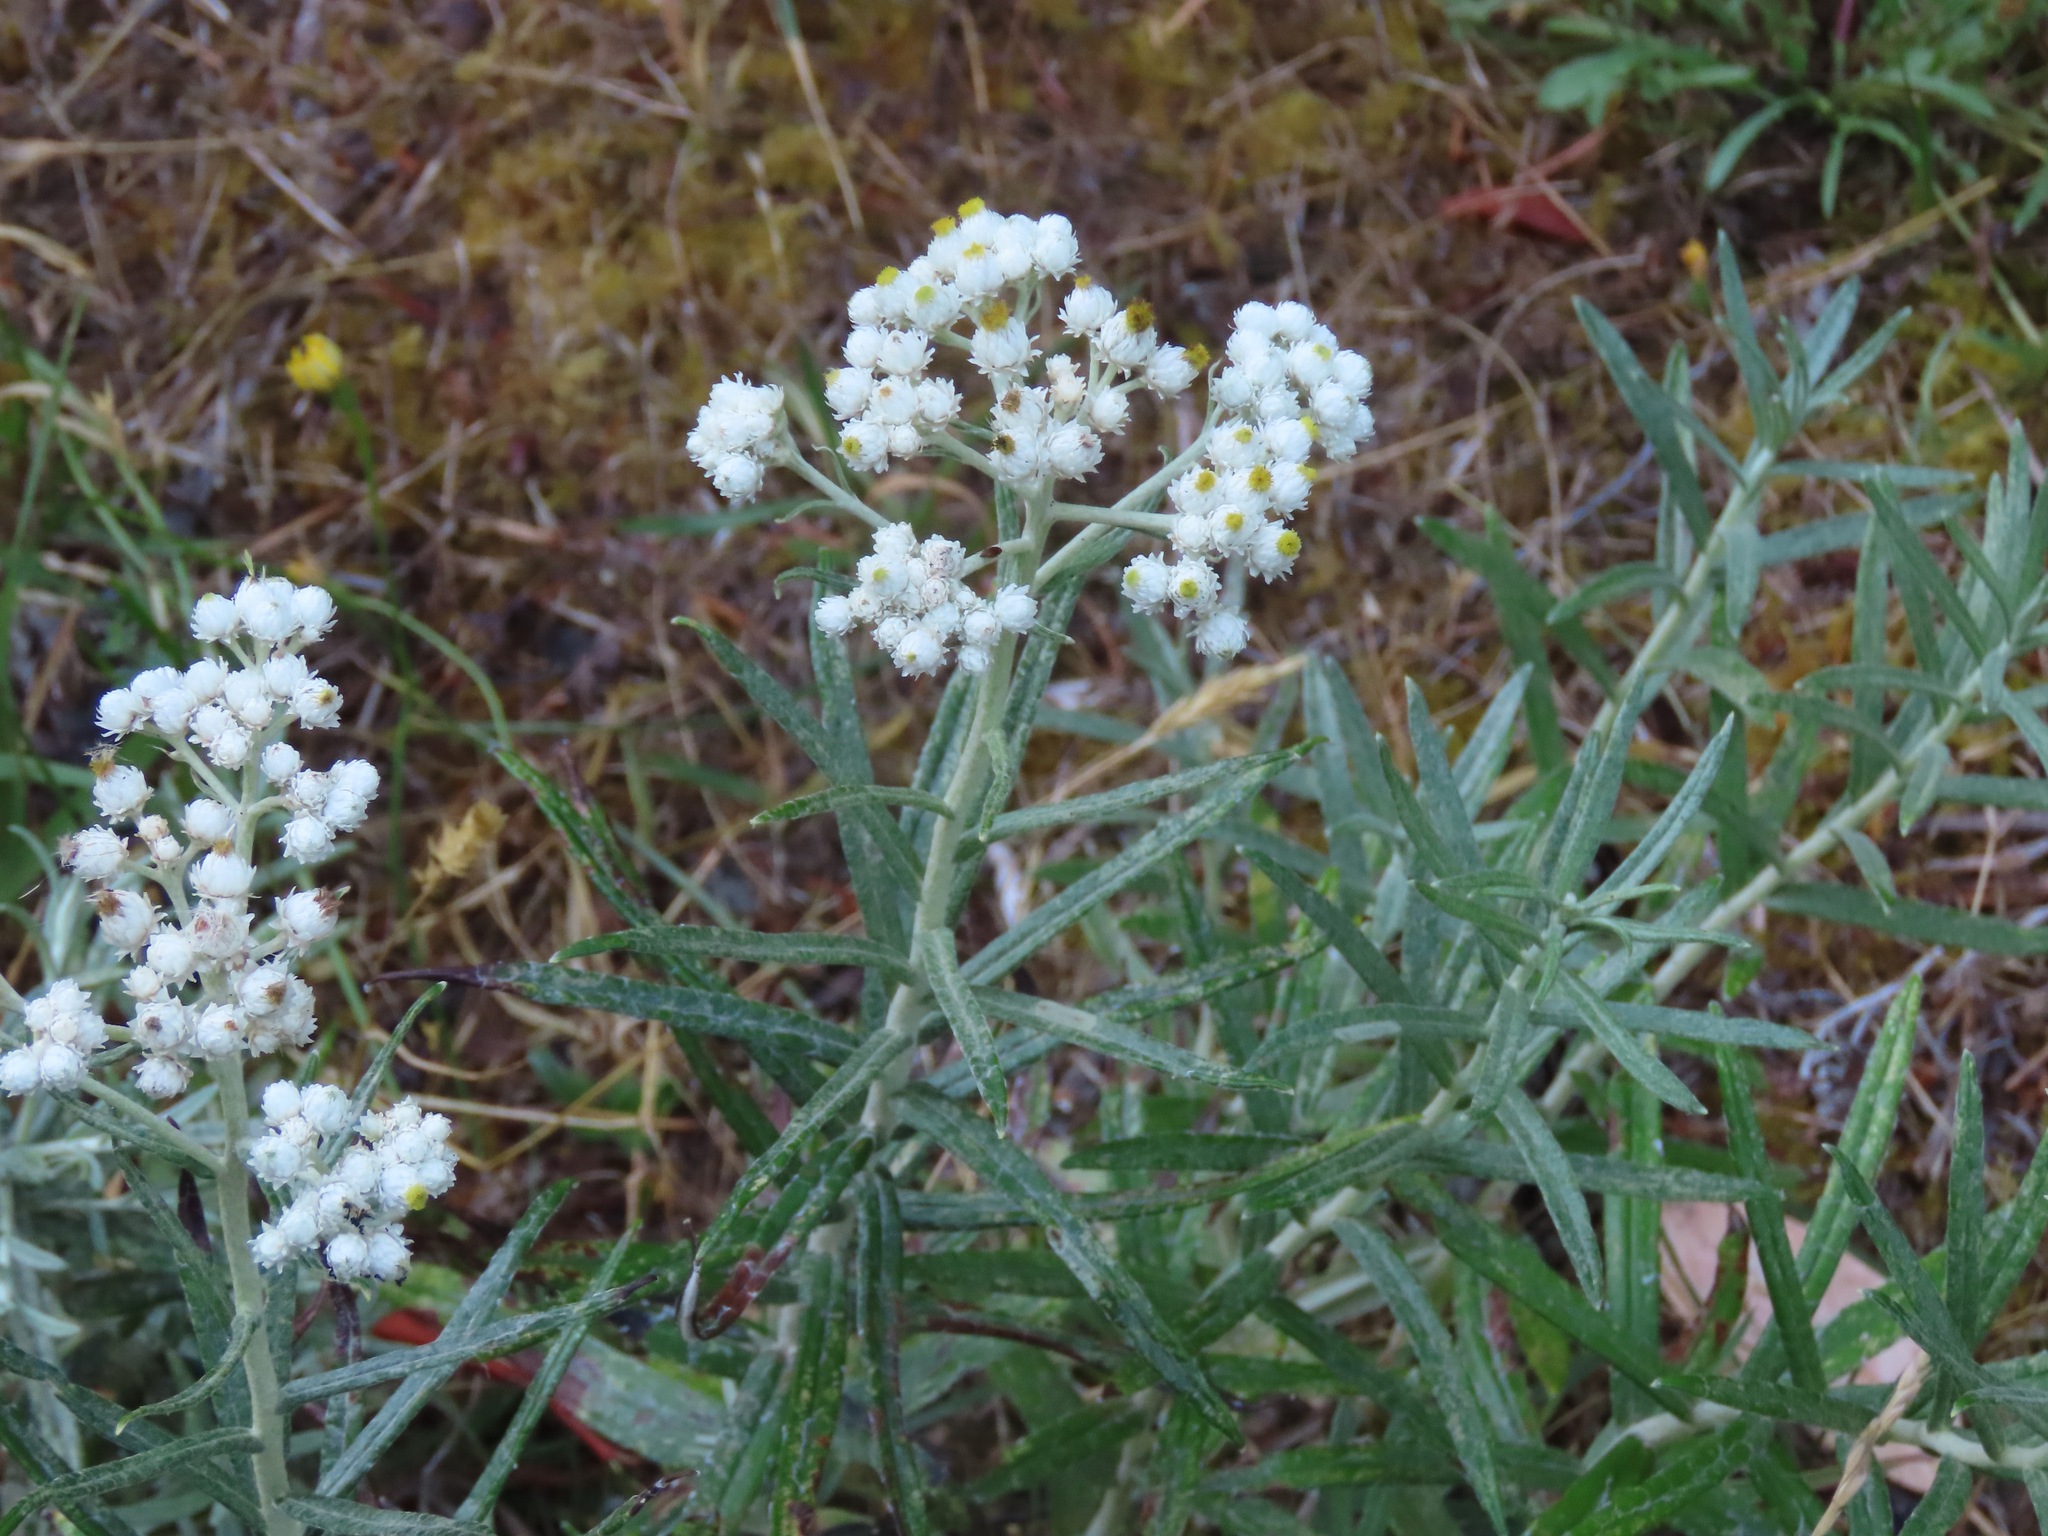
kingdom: Plantae
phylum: Tracheophyta
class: Magnoliopsida
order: Asterales
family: Asteraceae
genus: Anaphalis
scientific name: Anaphalis margaritacea
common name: Pearly everlasting
